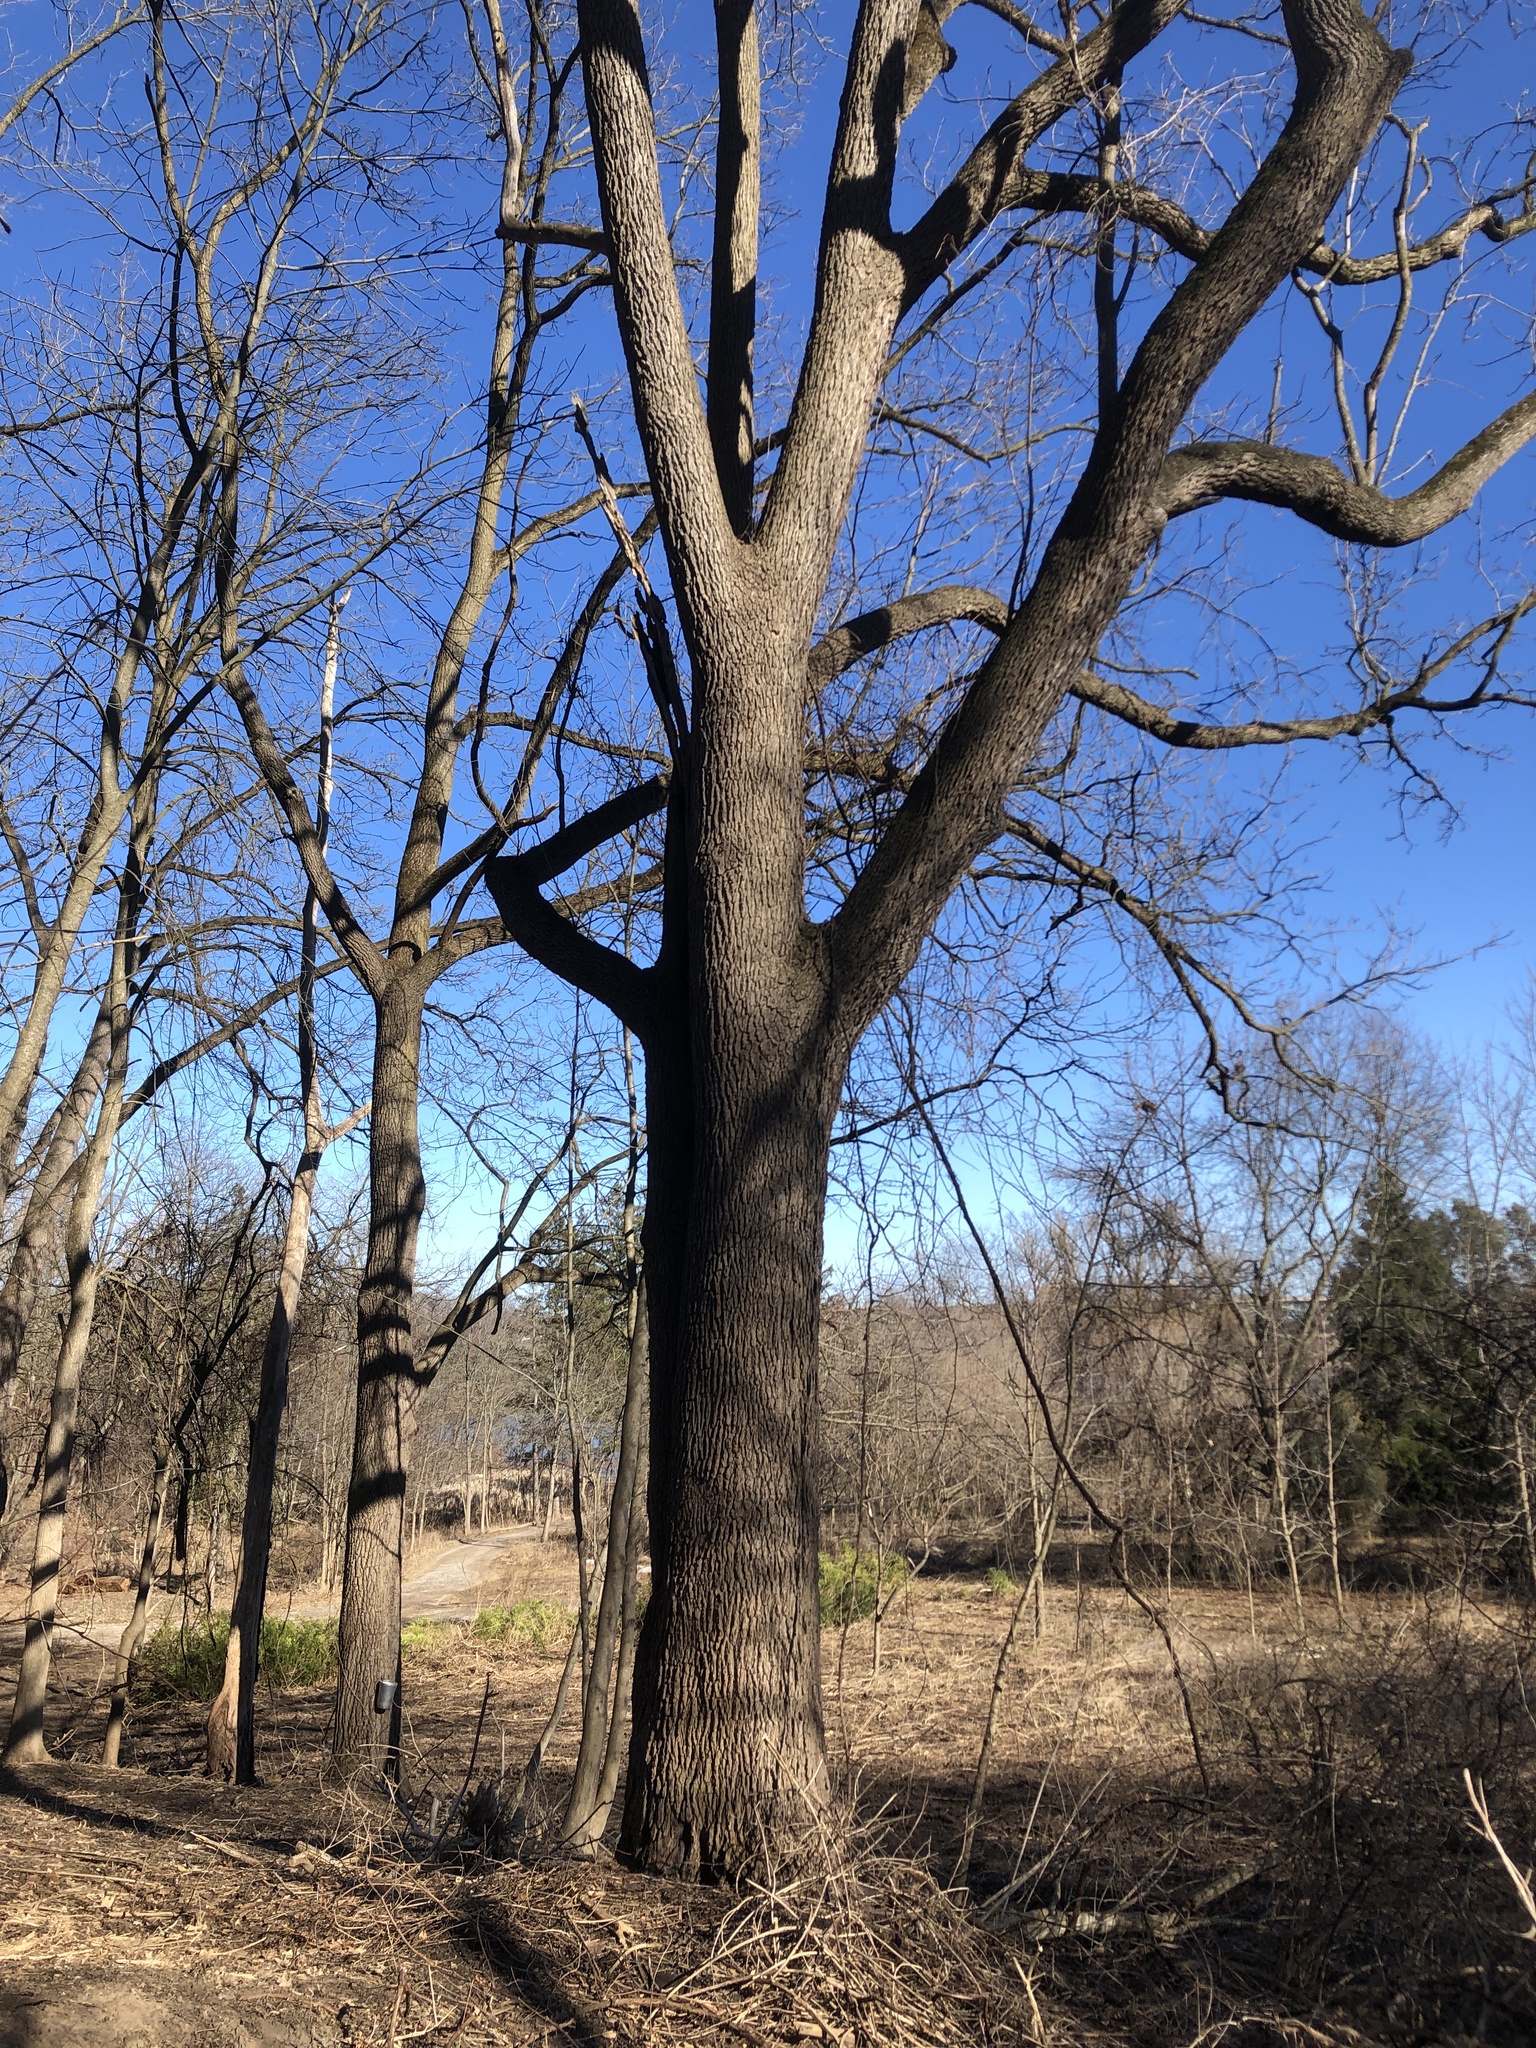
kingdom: Plantae
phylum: Tracheophyta
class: Magnoliopsida
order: Fagales
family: Juglandaceae
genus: Juglans
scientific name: Juglans nigra
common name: Black walnut
